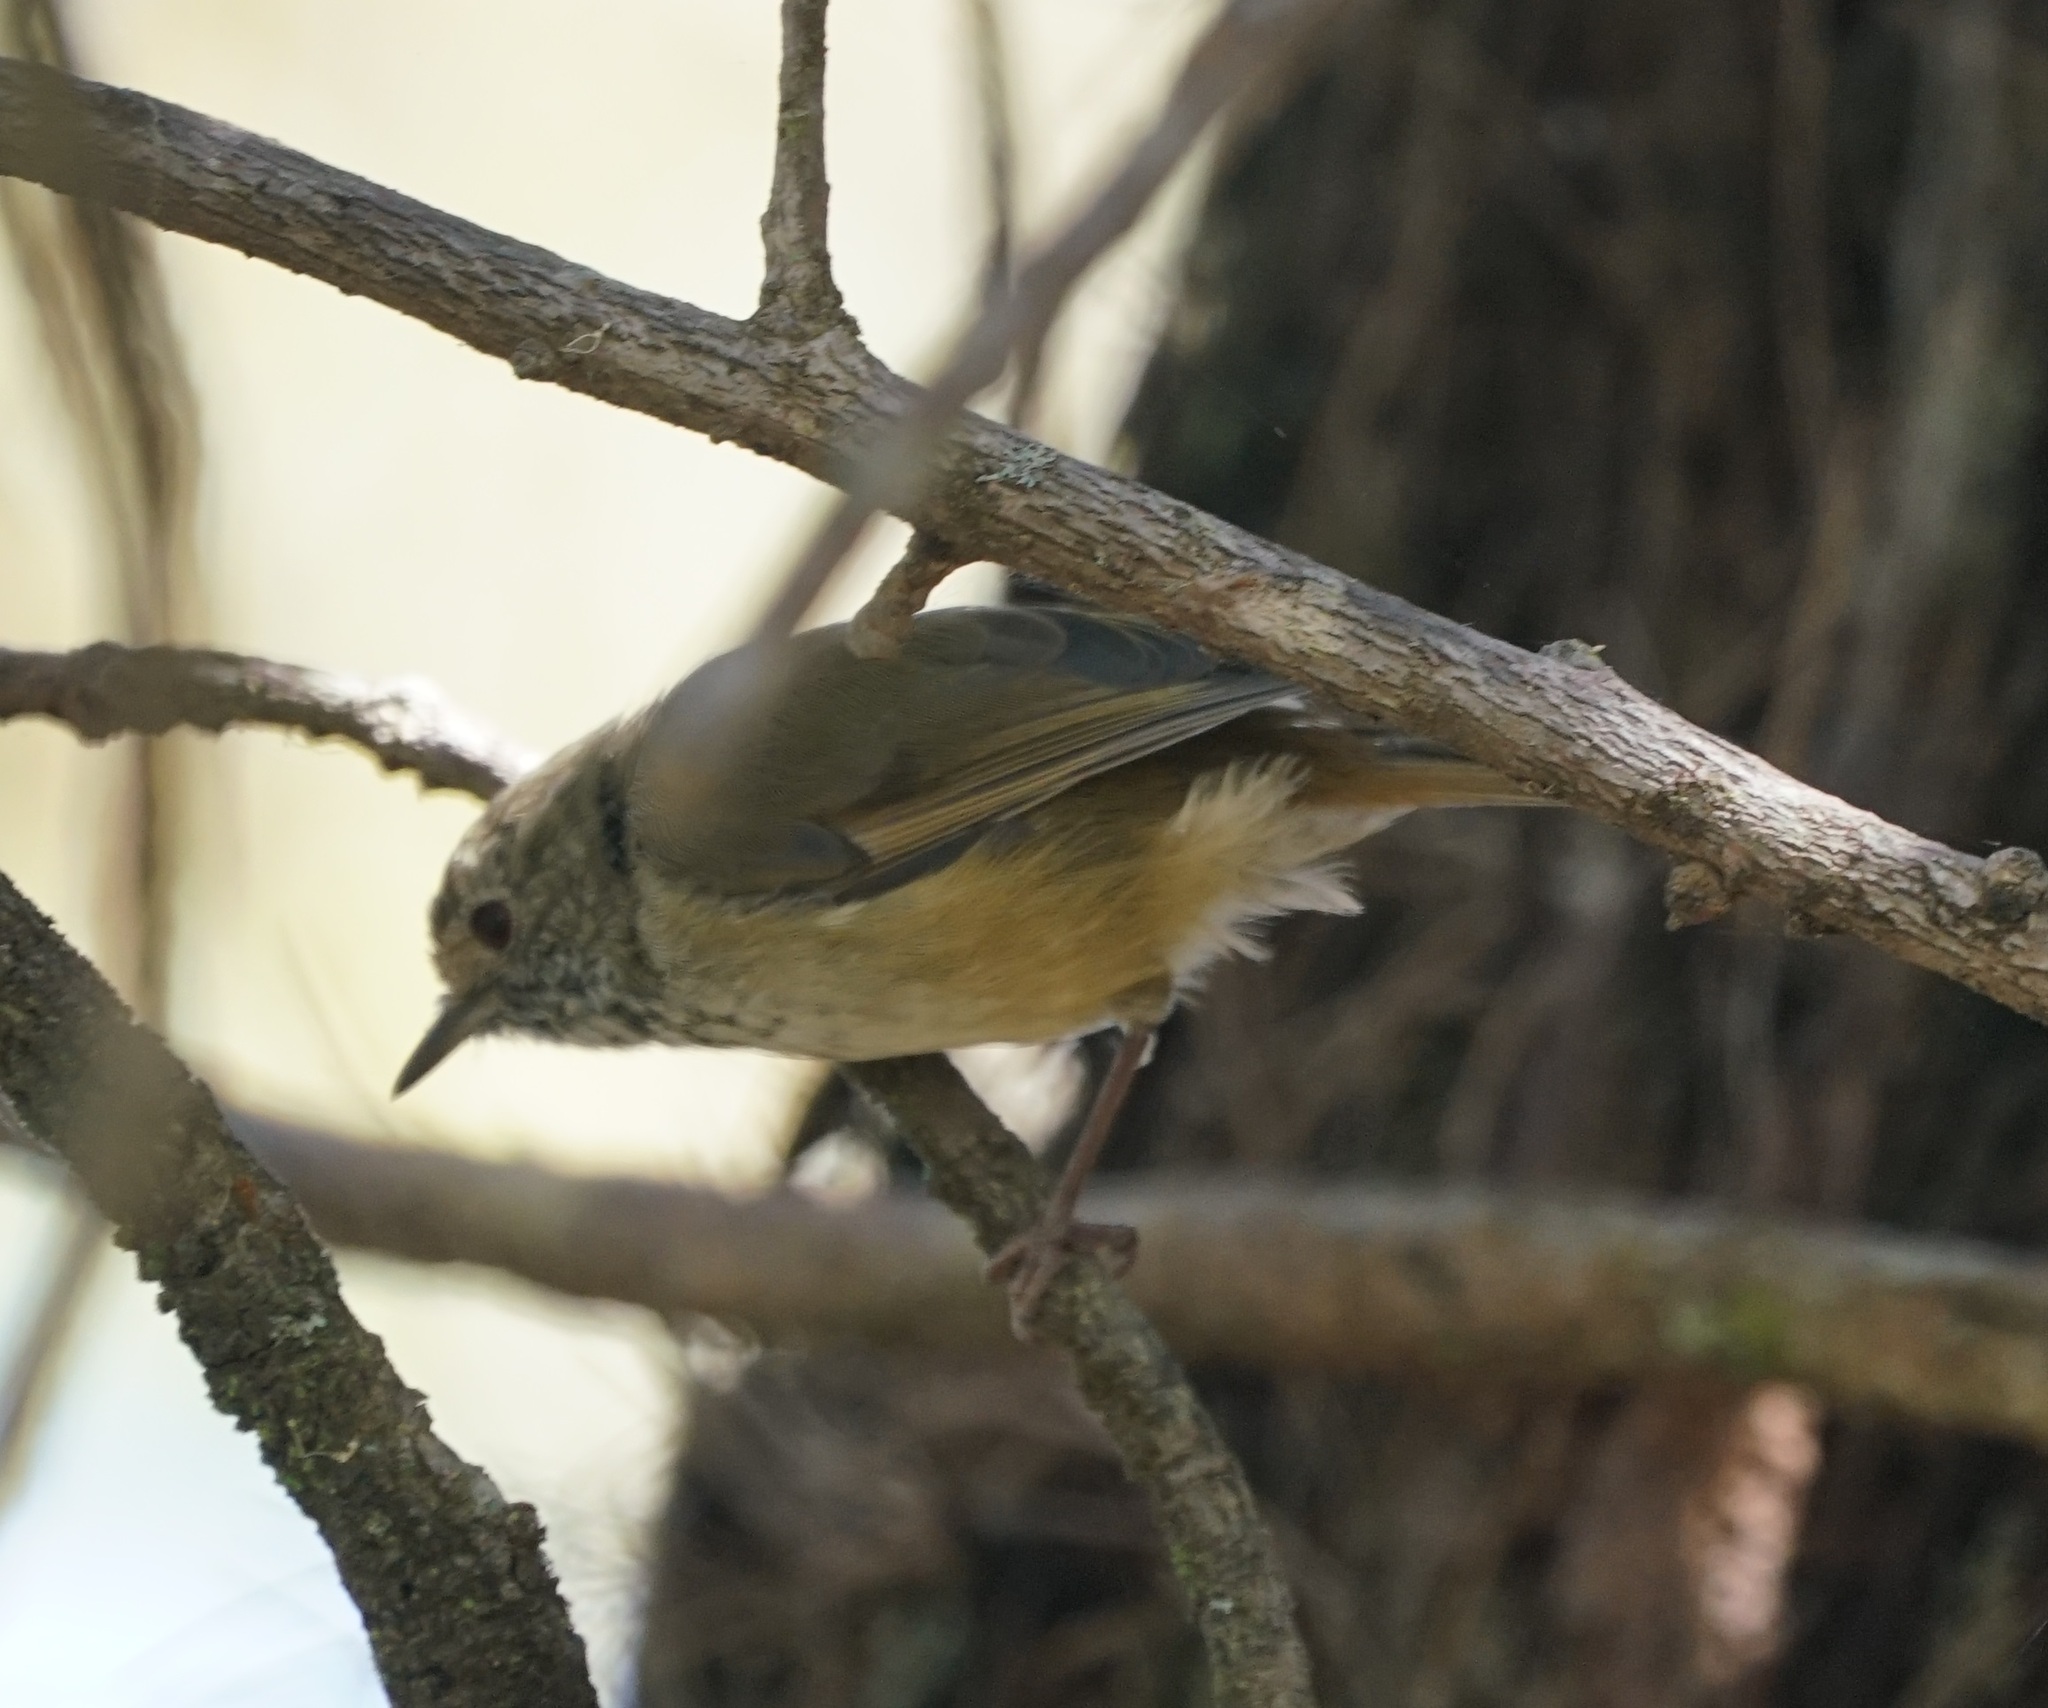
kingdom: Animalia
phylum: Chordata
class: Aves
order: Passeriformes
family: Acanthizidae
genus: Acanthiza
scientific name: Acanthiza pusilla
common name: Brown thornbill
